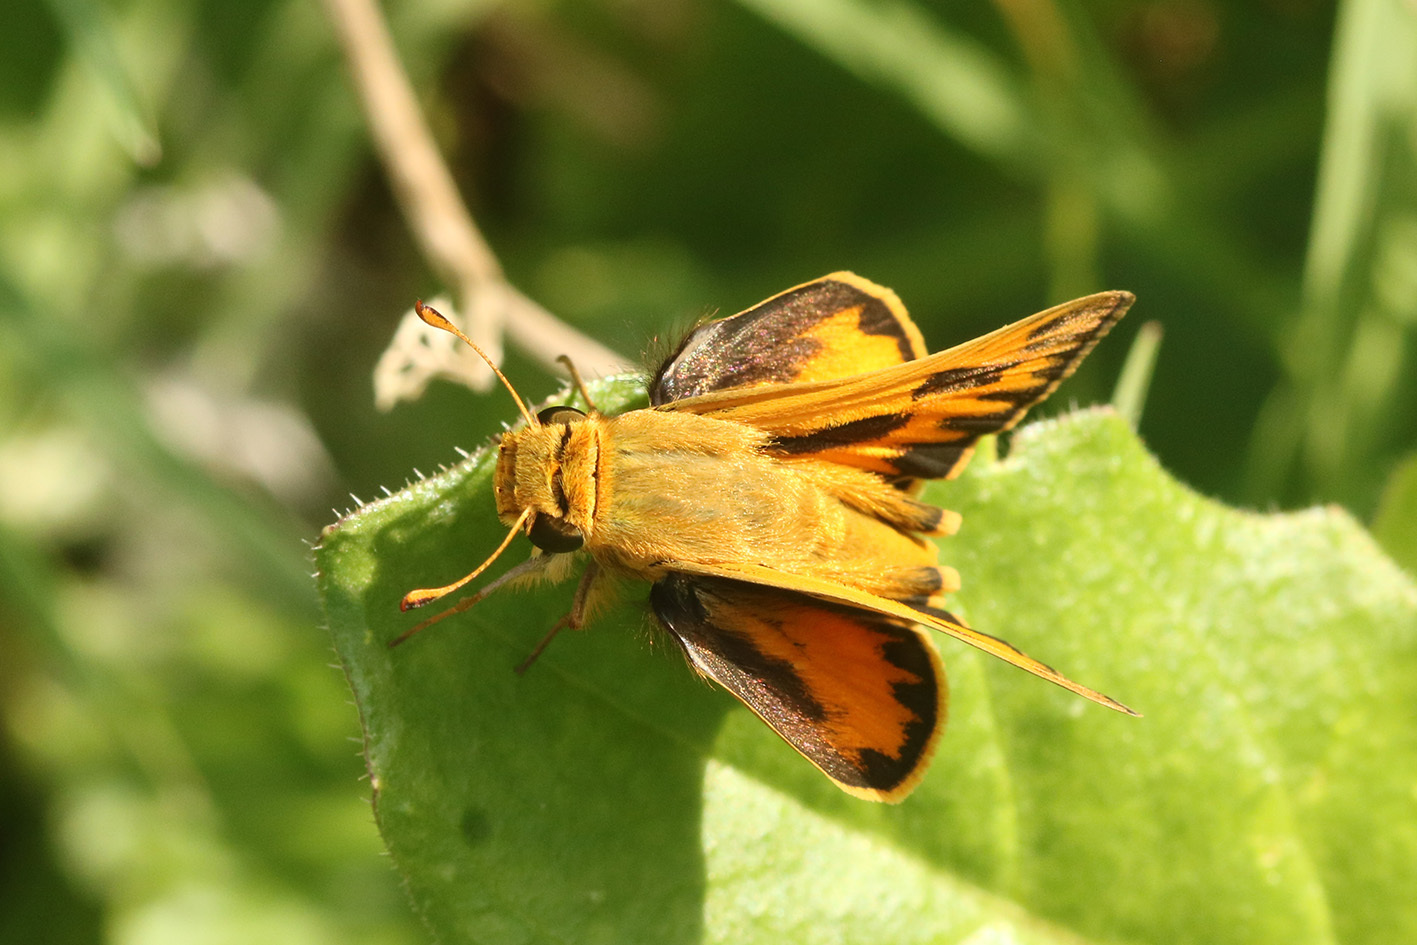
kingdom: Animalia
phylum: Arthropoda
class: Insecta
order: Lepidoptera
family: Hesperiidae
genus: Hylephila
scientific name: Hylephila phyleus
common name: Fiery skipper
